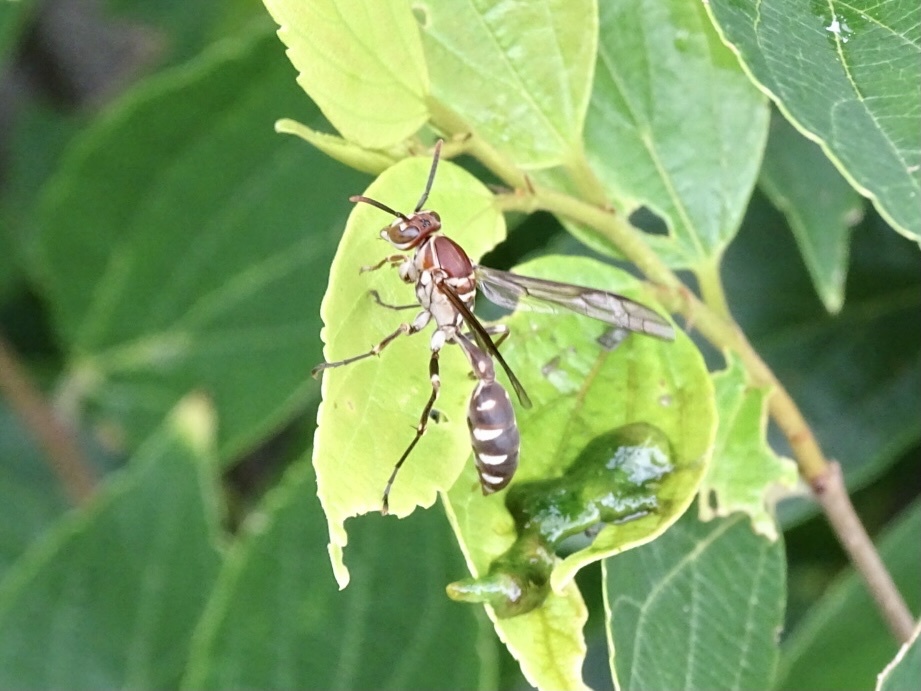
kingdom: Animalia
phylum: Arthropoda
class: Insecta
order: Hymenoptera
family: Vespidae
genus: Parapolybia
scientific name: Parapolybia nodosa
